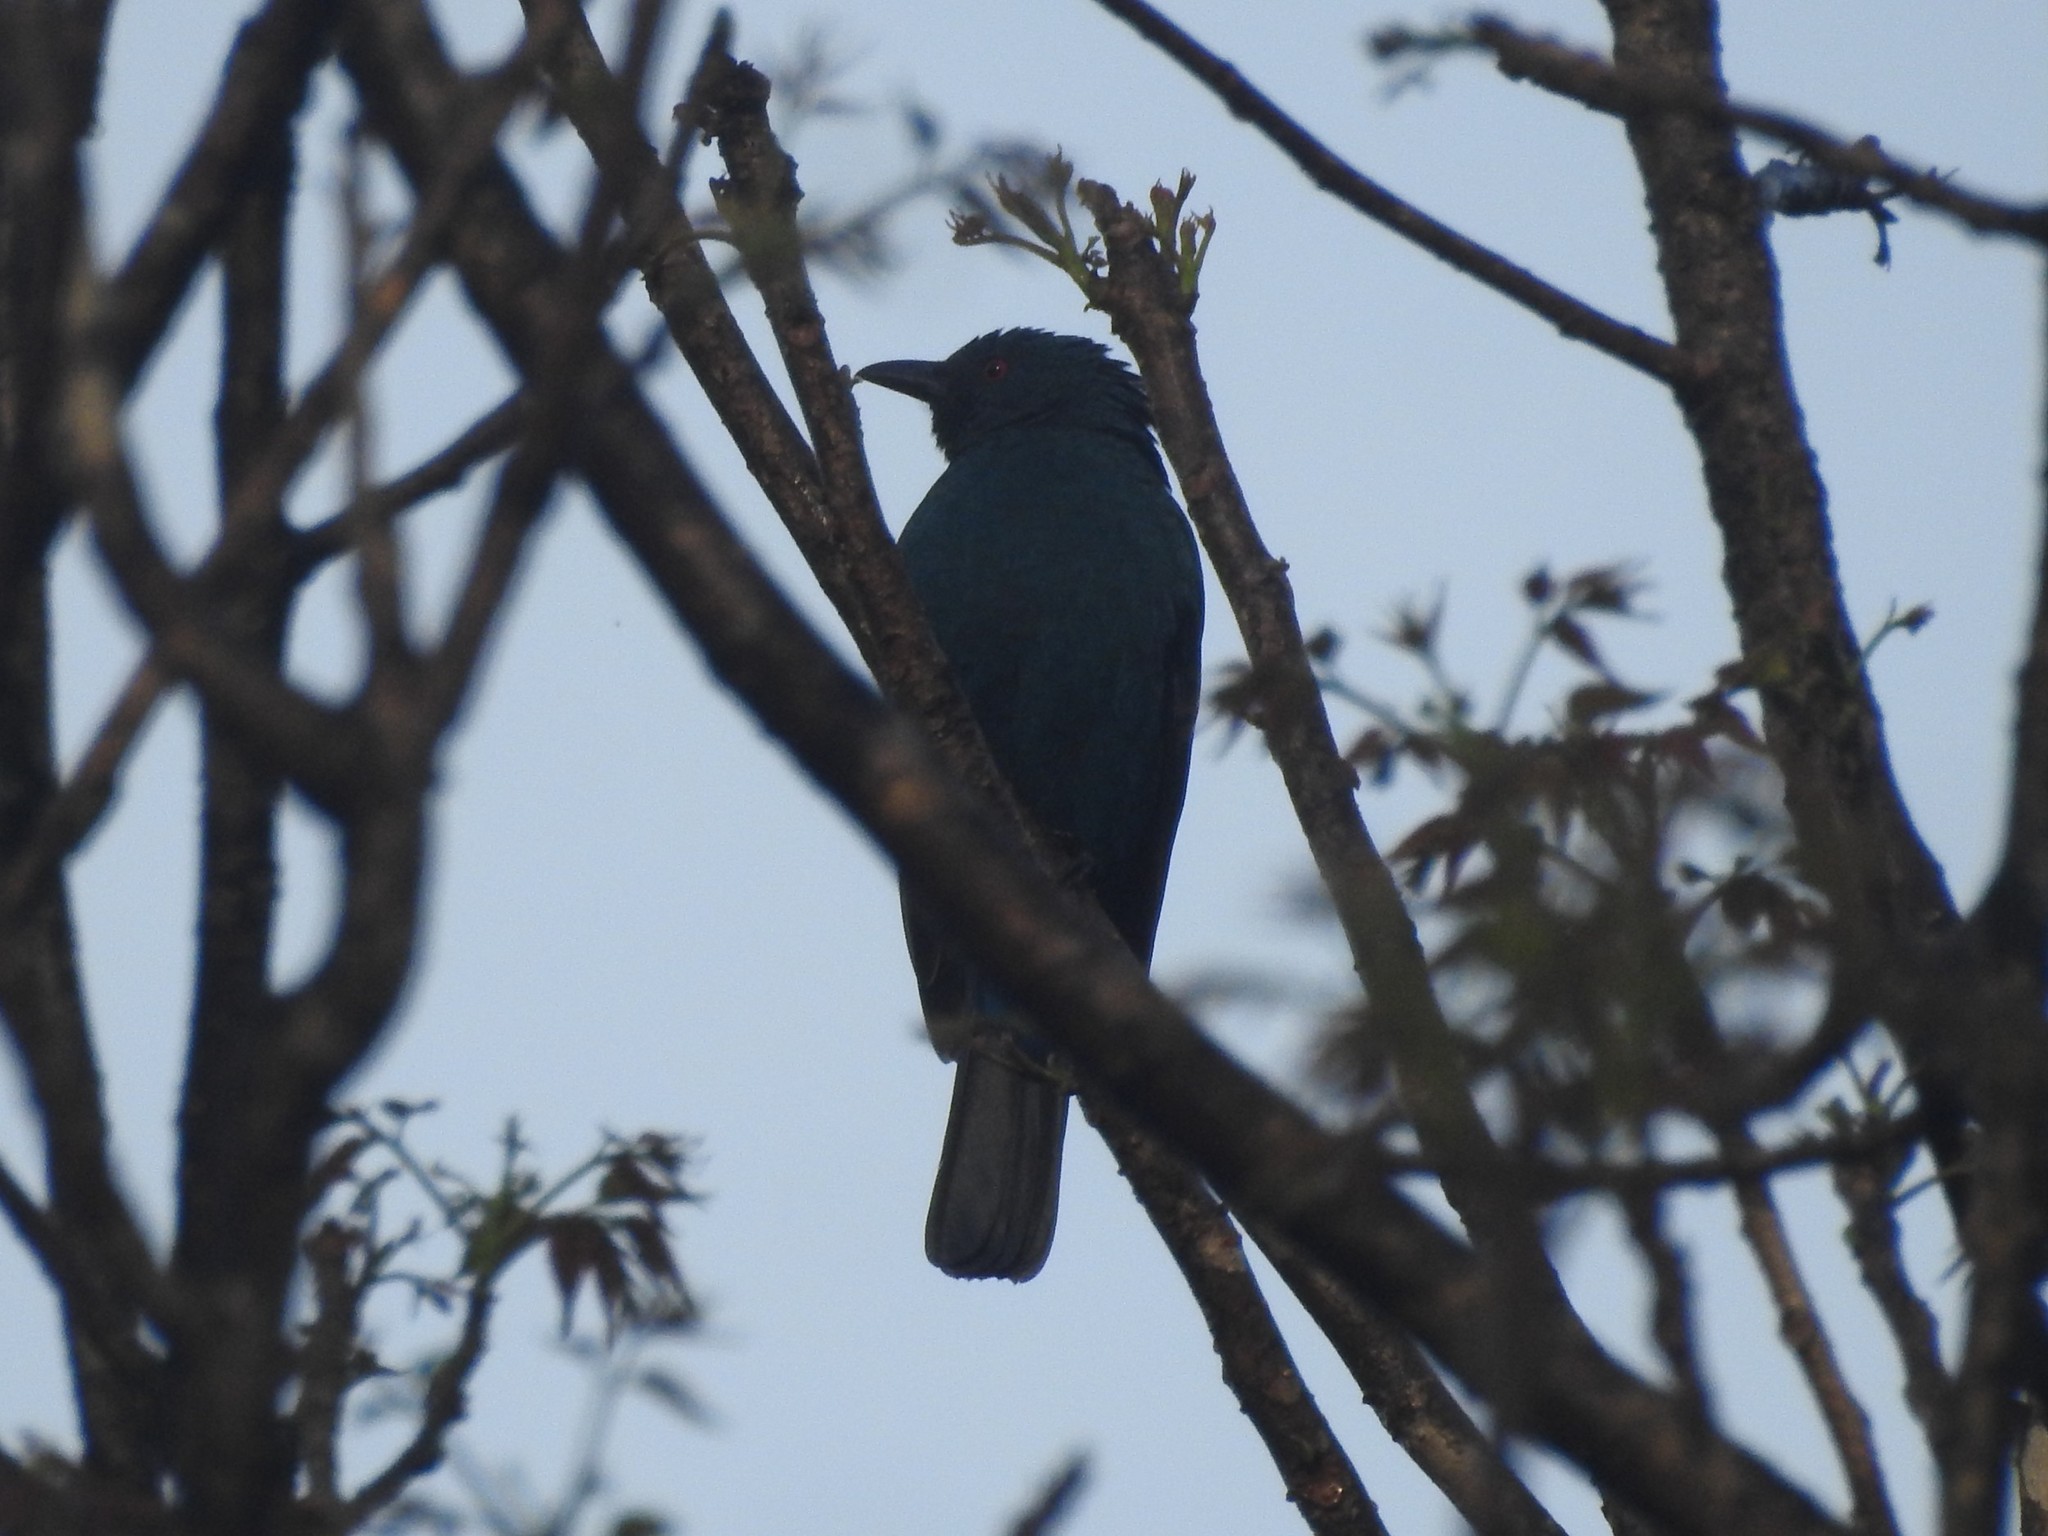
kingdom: Animalia
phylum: Chordata
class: Aves
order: Passeriformes
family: Irenidae
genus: Irena
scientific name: Irena puella
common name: Asian fairy-bluebird
